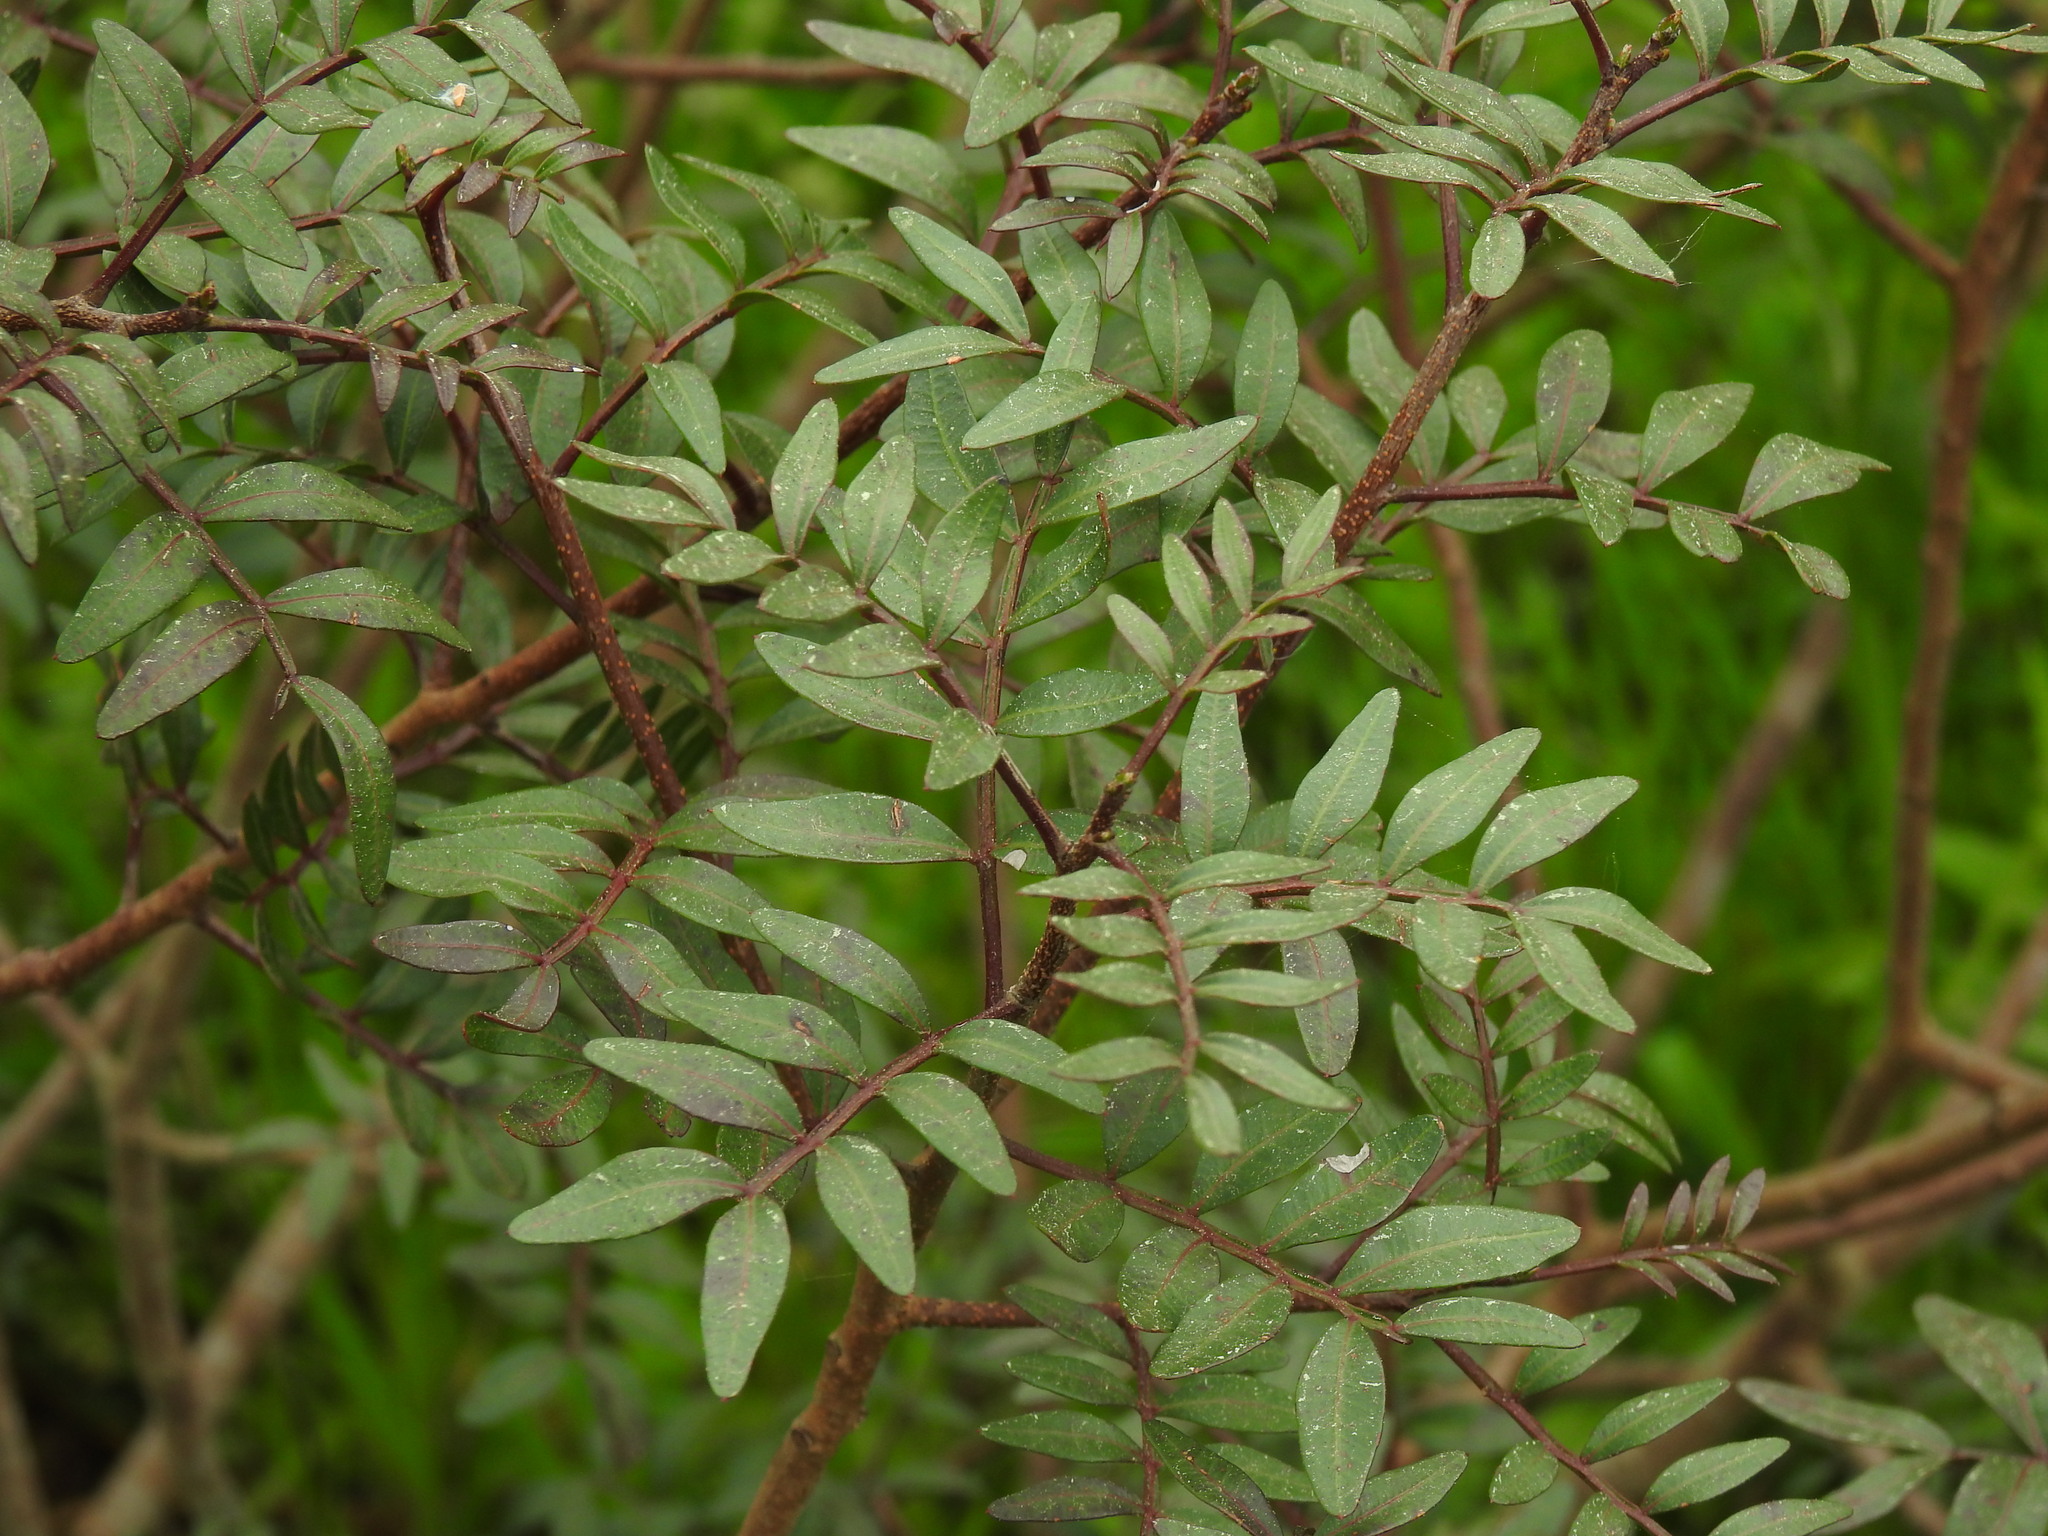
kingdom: Plantae
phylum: Tracheophyta
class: Magnoliopsida
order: Sapindales
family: Anacardiaceae
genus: Pistacia
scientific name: Pistacia lentiscus
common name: Lentisk
